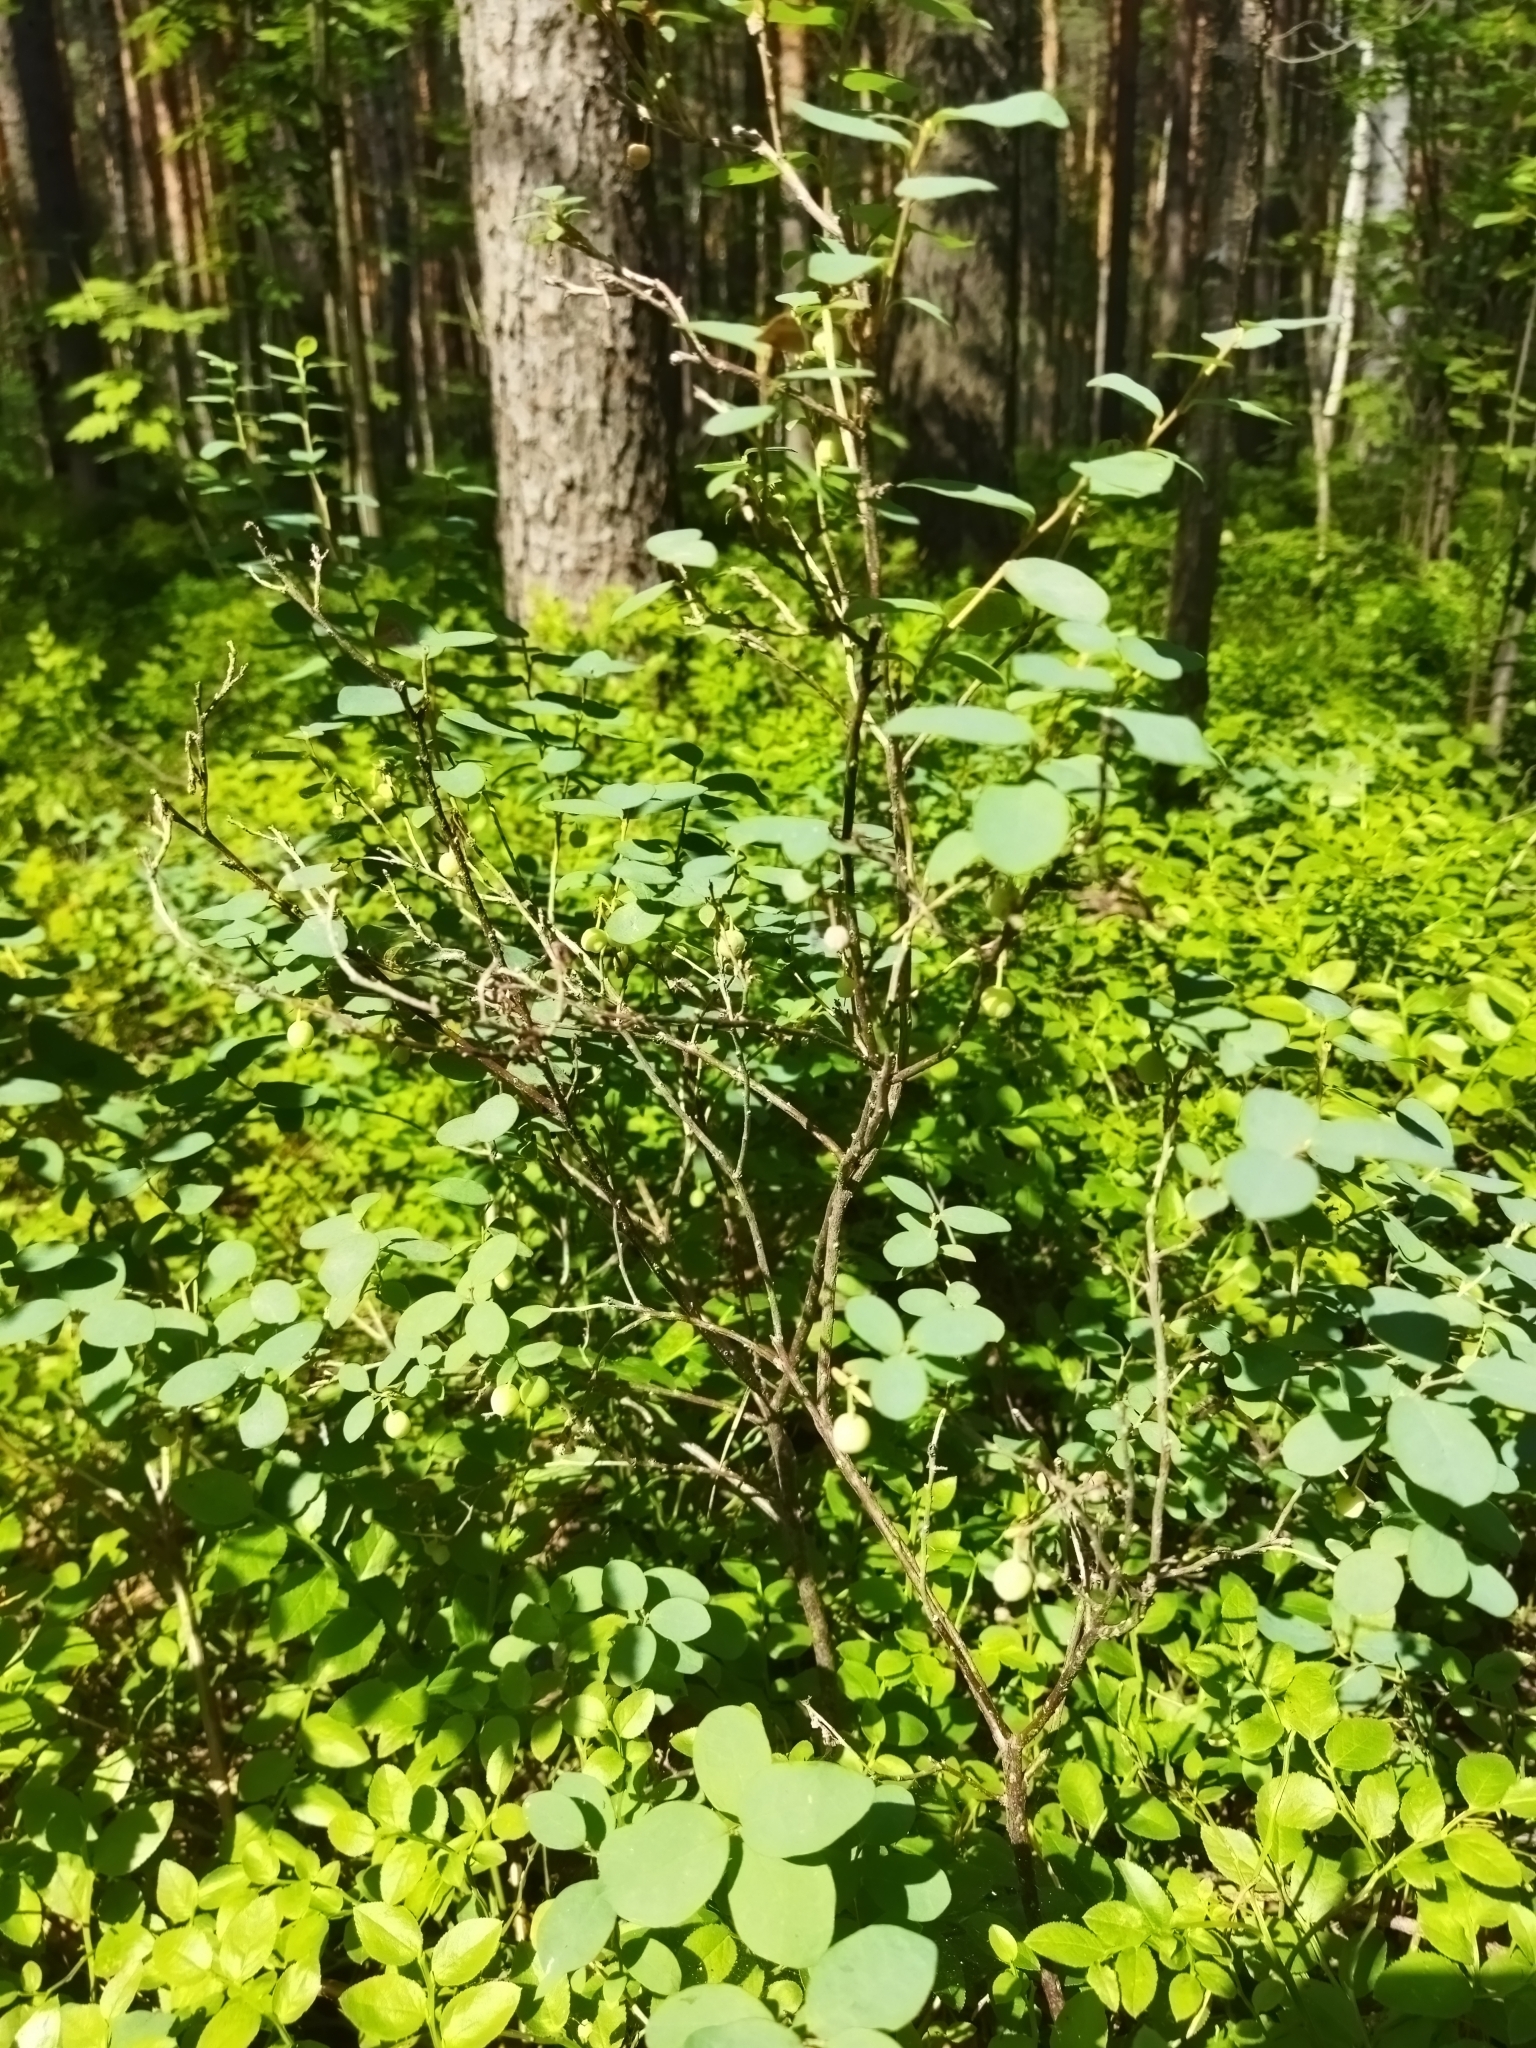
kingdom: Plantae
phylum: Tracheophyta
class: Magnoliopsida
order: Ericales
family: Ericaceae
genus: Vaccinium
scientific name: Vaccinium uliginosum
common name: Bog bilberry
